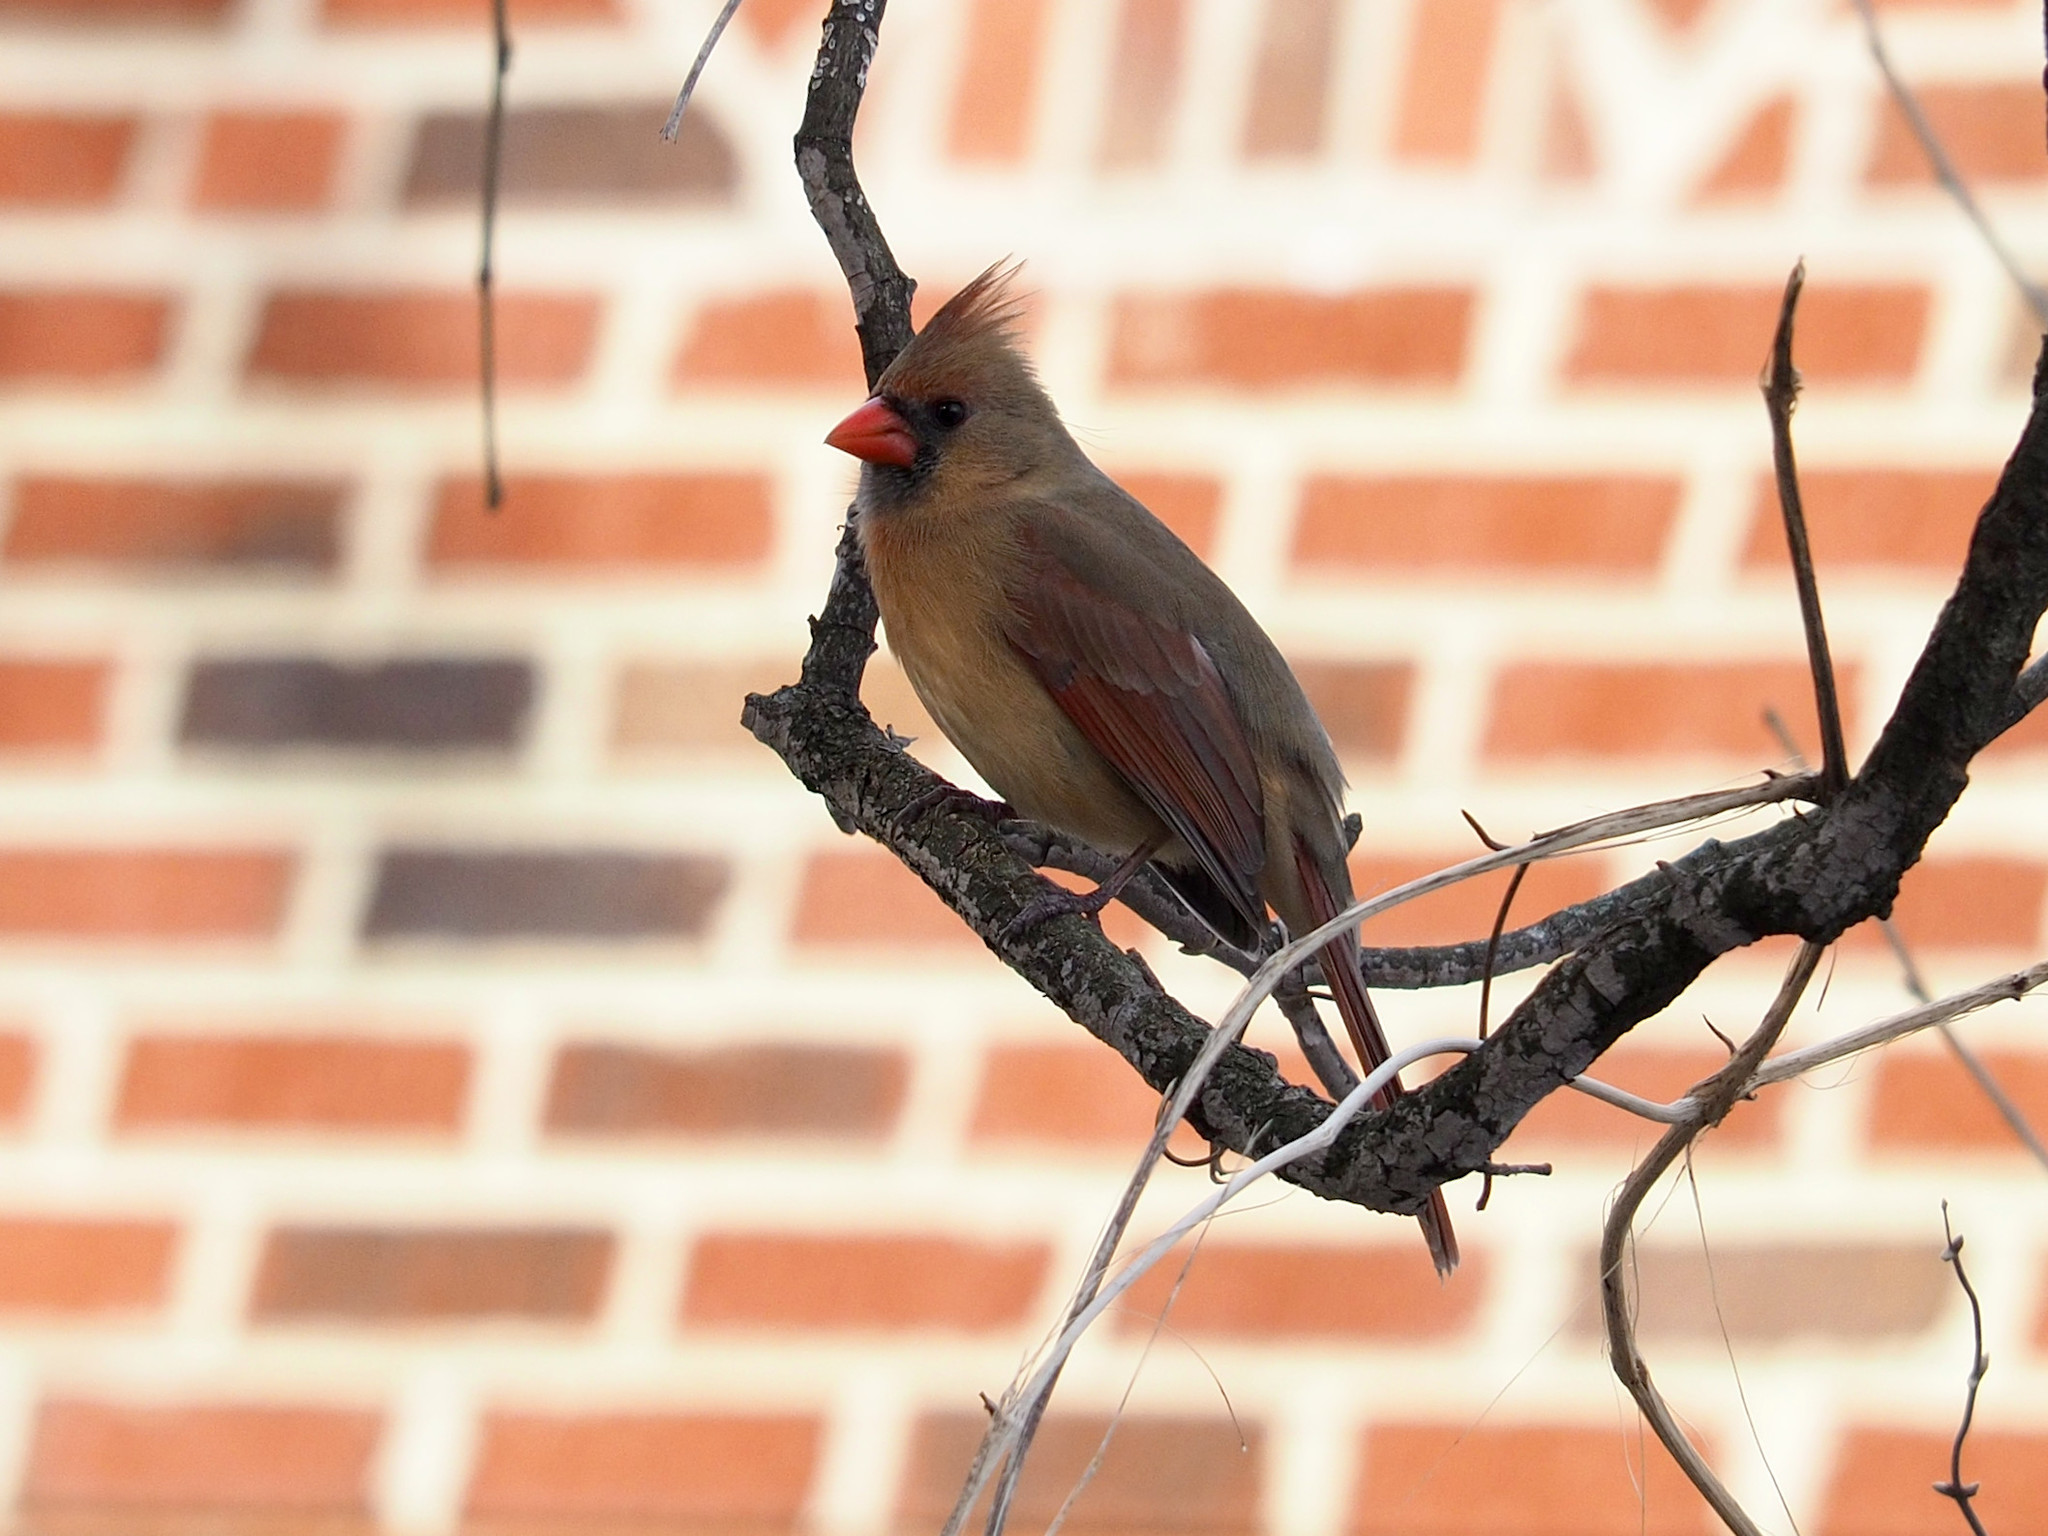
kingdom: Animalia
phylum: Chordata
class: Aves
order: Passeriformes
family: Cardinalidae
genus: Cardinalis
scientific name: Cardinalis cardinalis
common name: Northern cardinal
